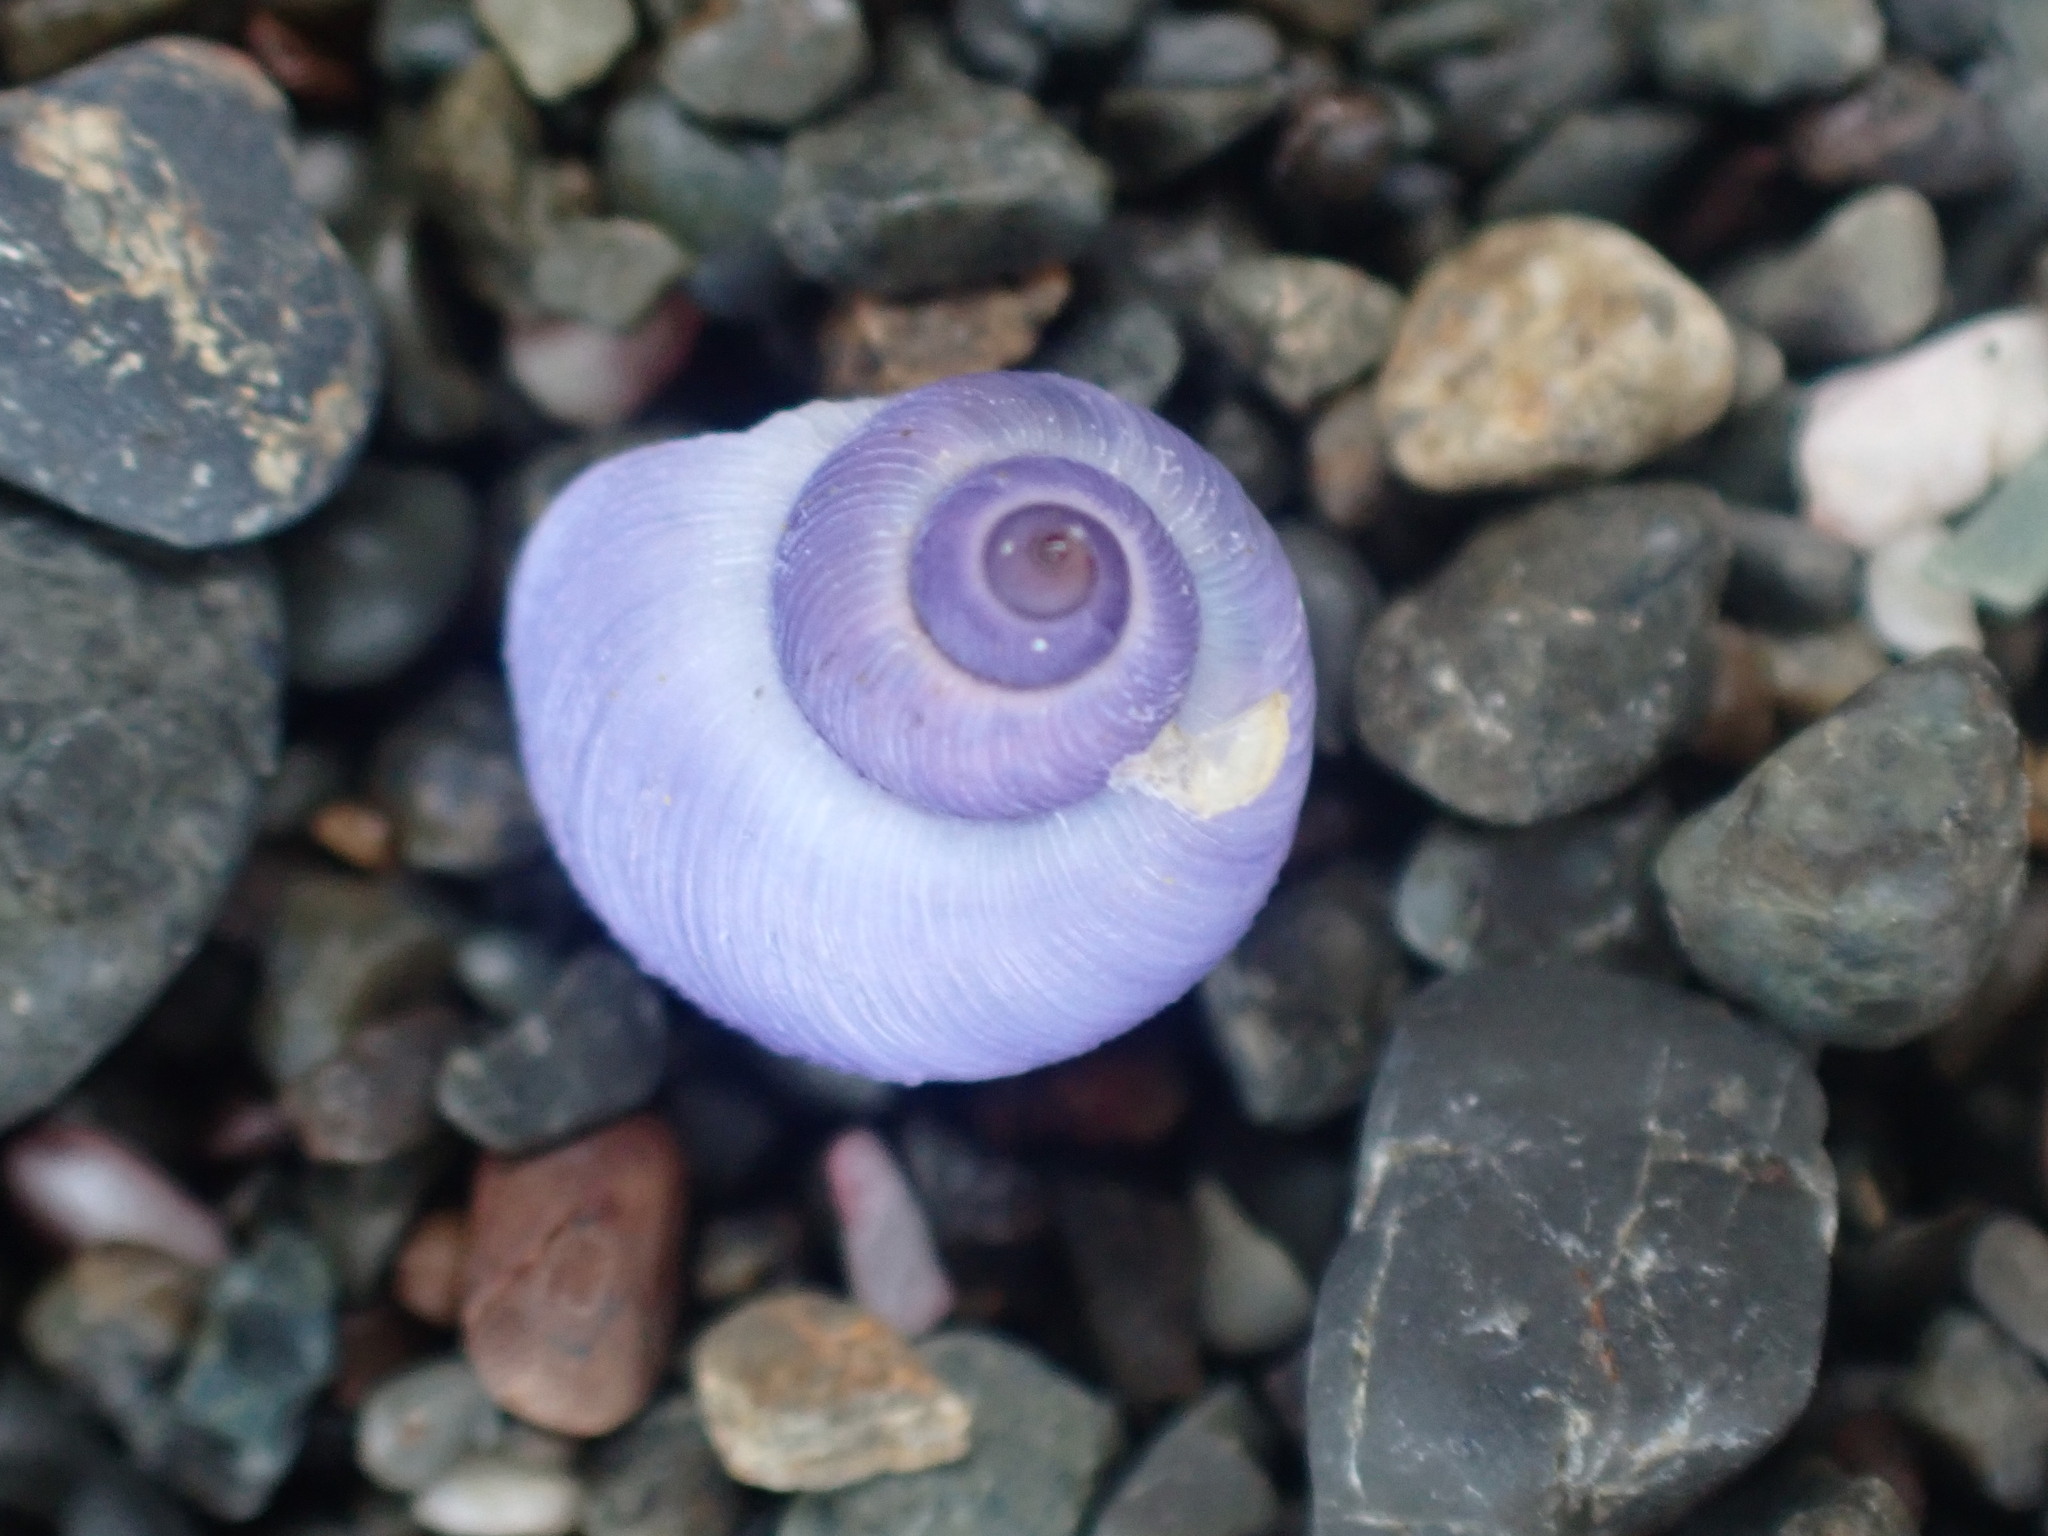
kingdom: Animalia
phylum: Mollusca
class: Gastropoda
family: Epitoniidae
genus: Janthina
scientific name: Janthina exigua
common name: Dwarf janthina
